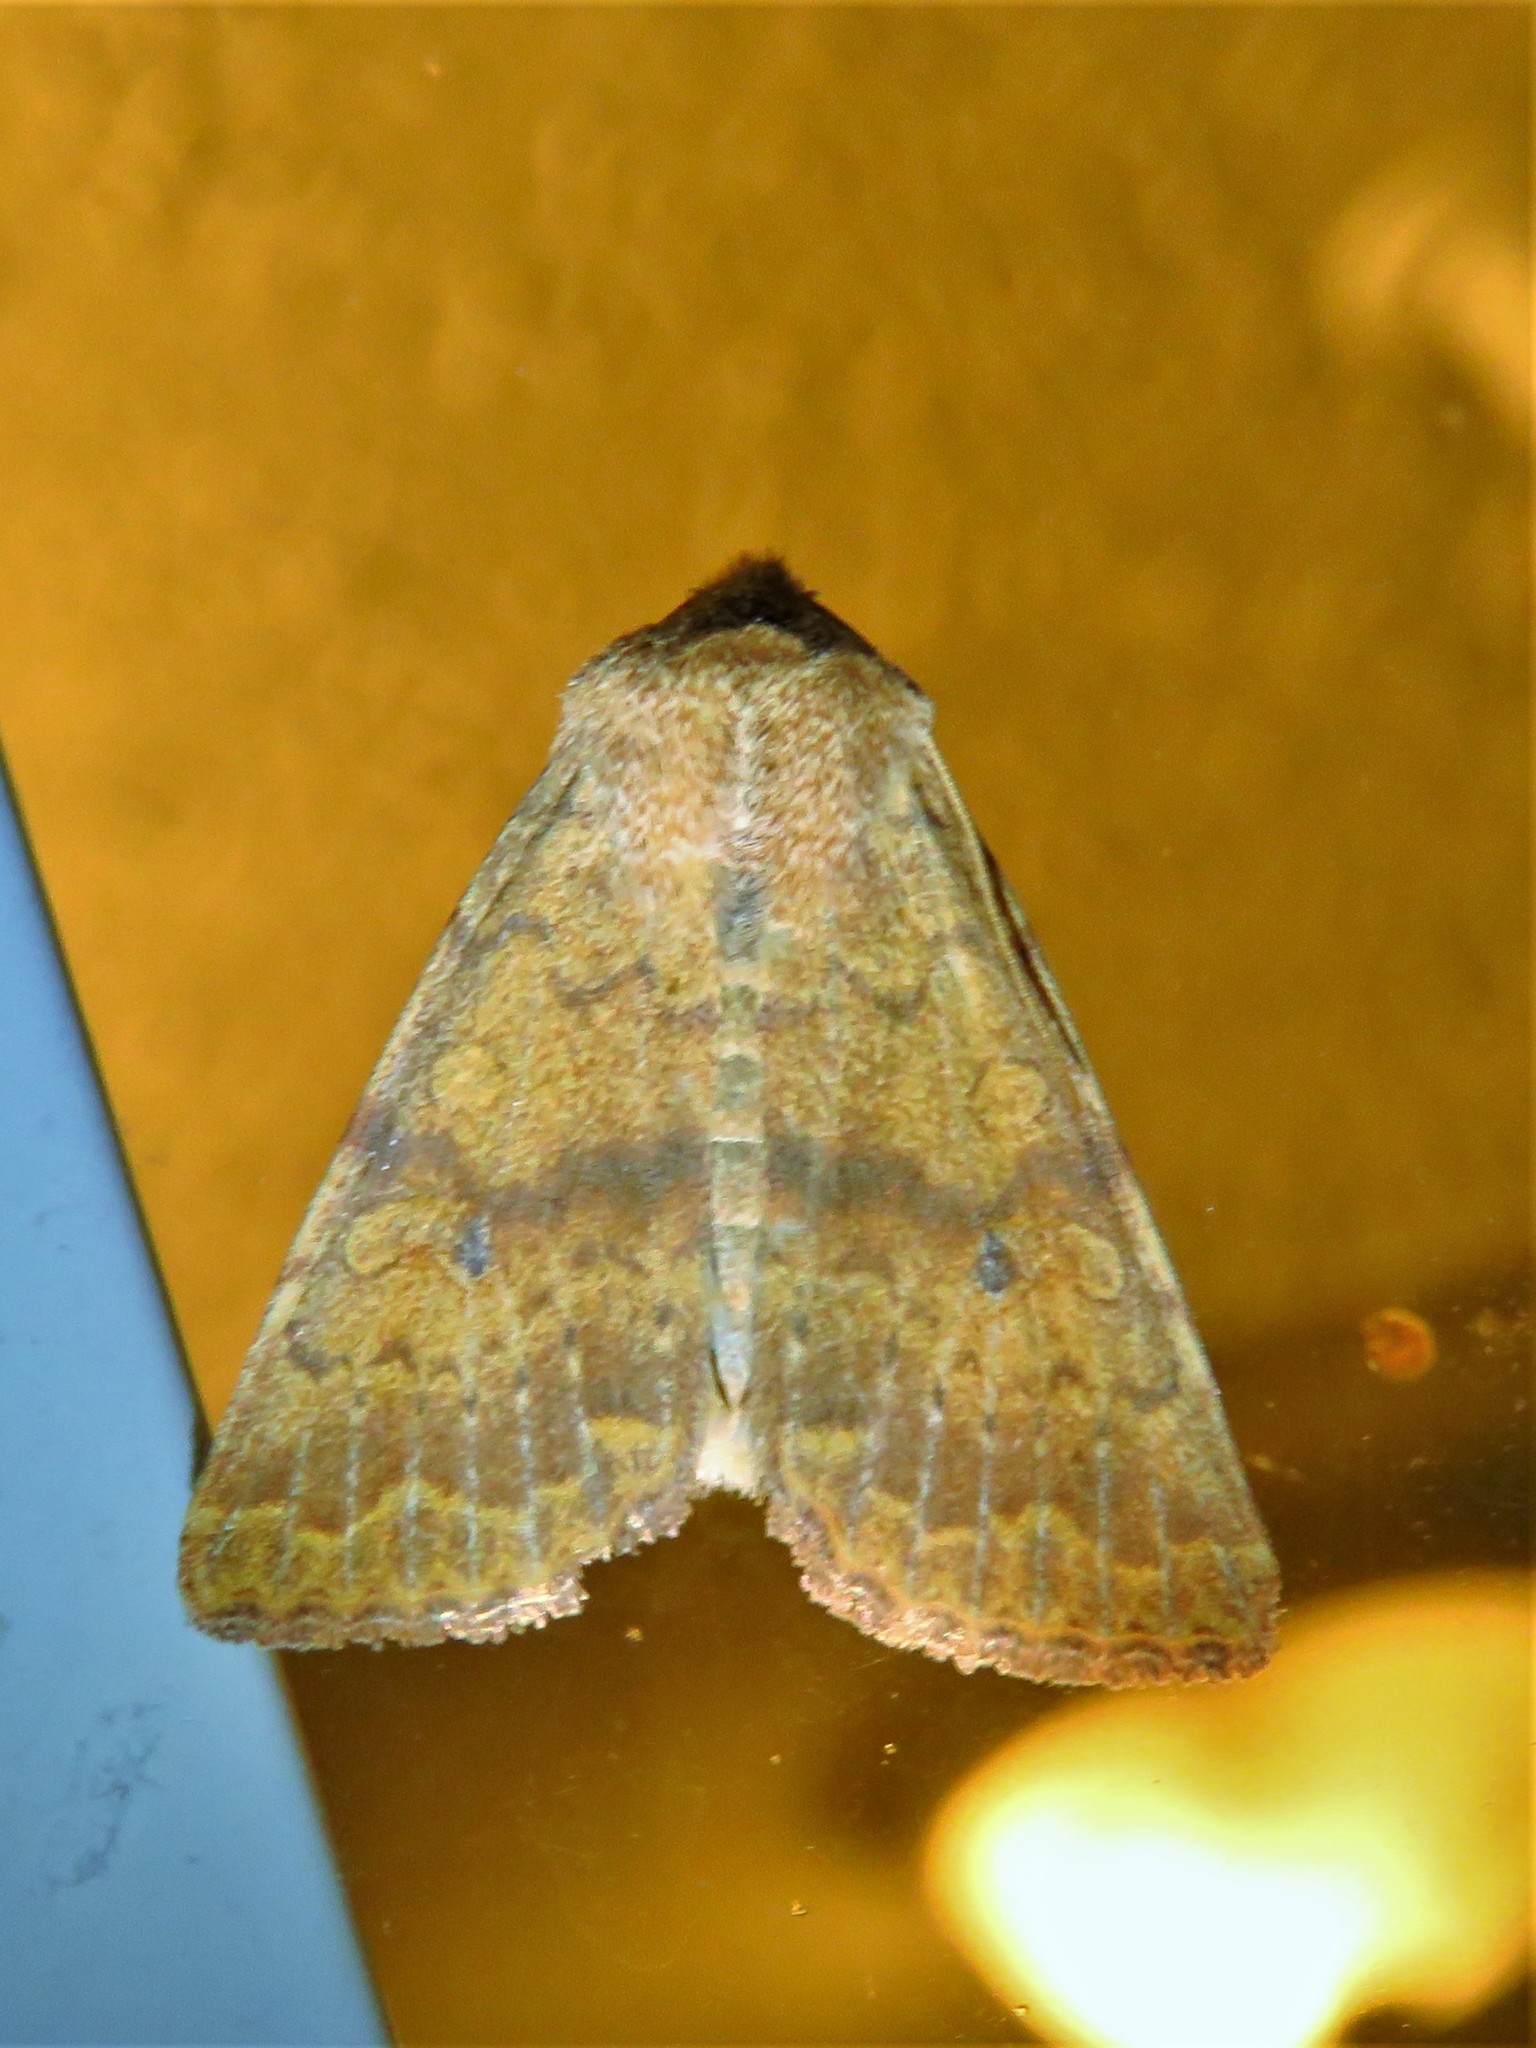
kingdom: Animalia
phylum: Arthropoda
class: Insecta
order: Lepidoptera
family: Noctuidae
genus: Agrochola
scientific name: Agrochola bicolorago
